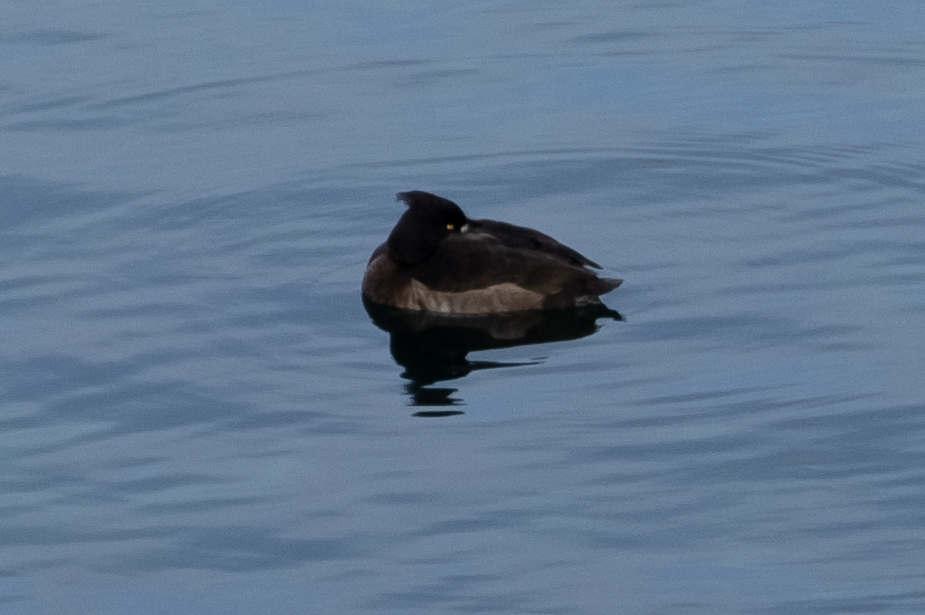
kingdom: Animalia
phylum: Chordata
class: Aves
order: Anseriformes
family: Anatidae
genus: Aythya
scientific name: Aythya fuligula
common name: Tufted duck
